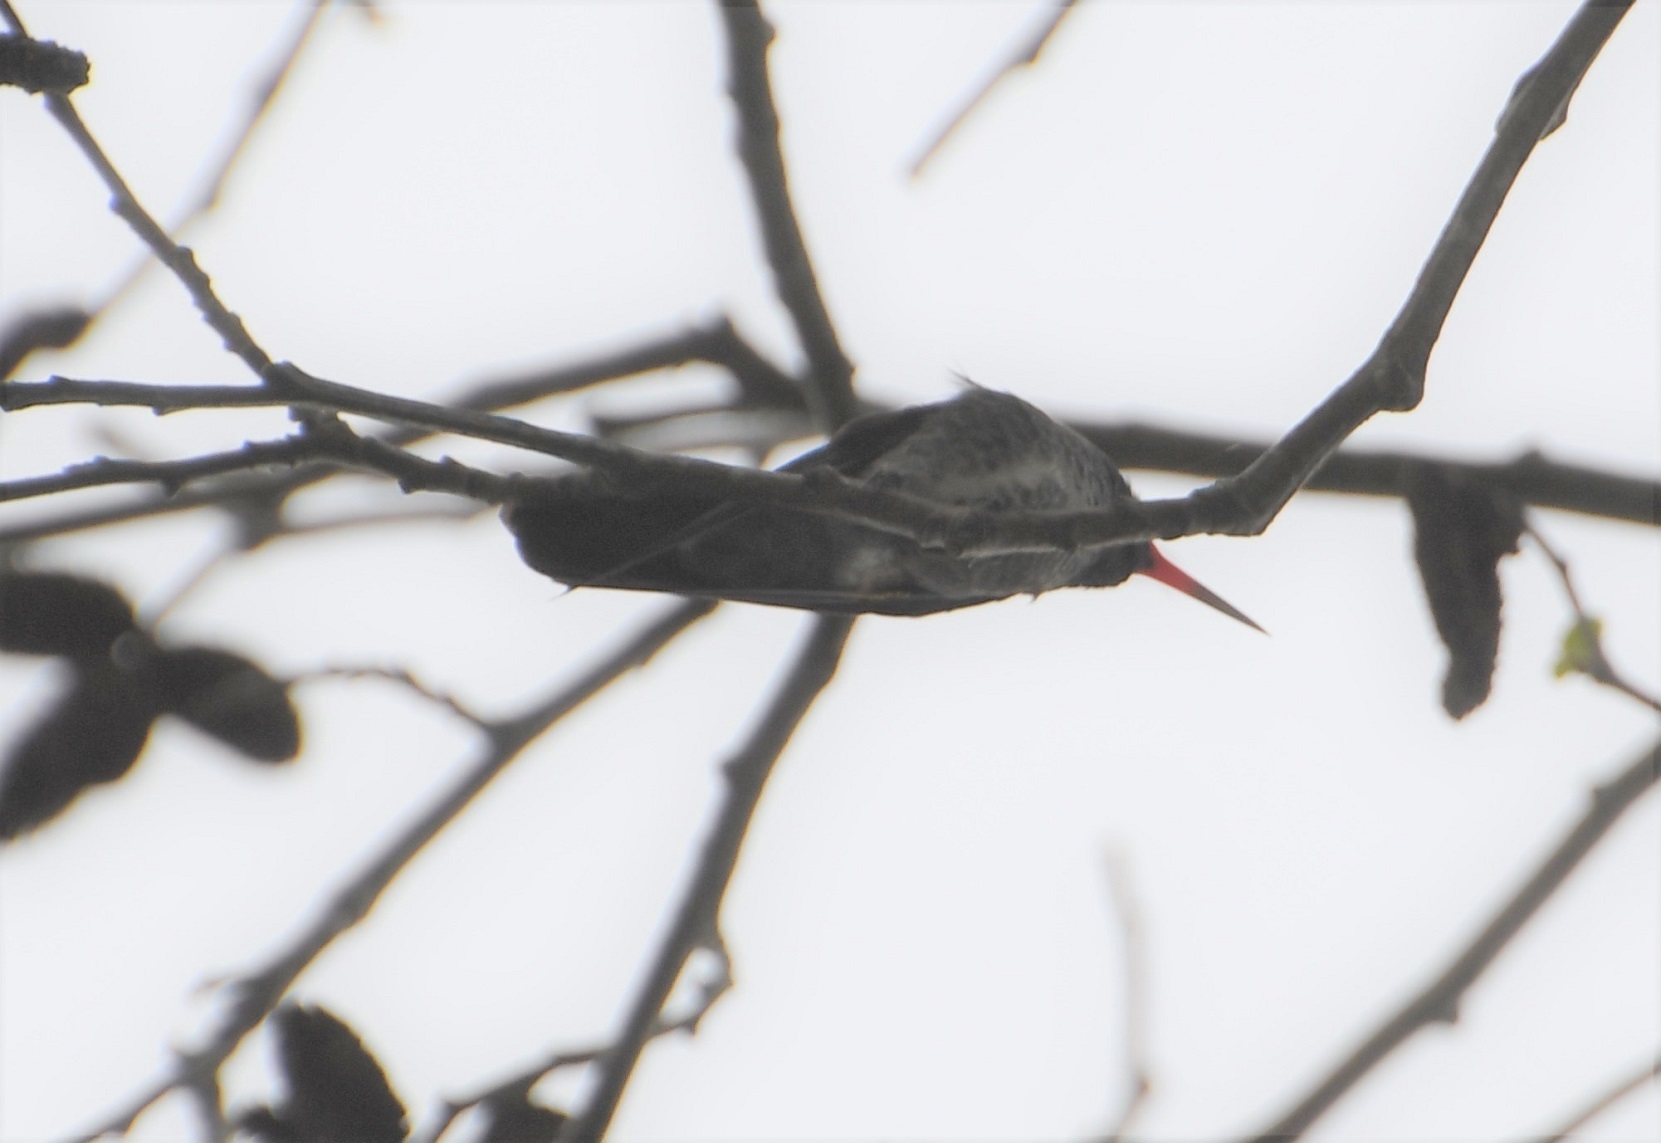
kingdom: Animalia
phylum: Chordata
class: Aves
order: Apodiformes
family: Trochilidae
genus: Basilinna
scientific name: Basilinna leucotis
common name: White-eared hummingbird
